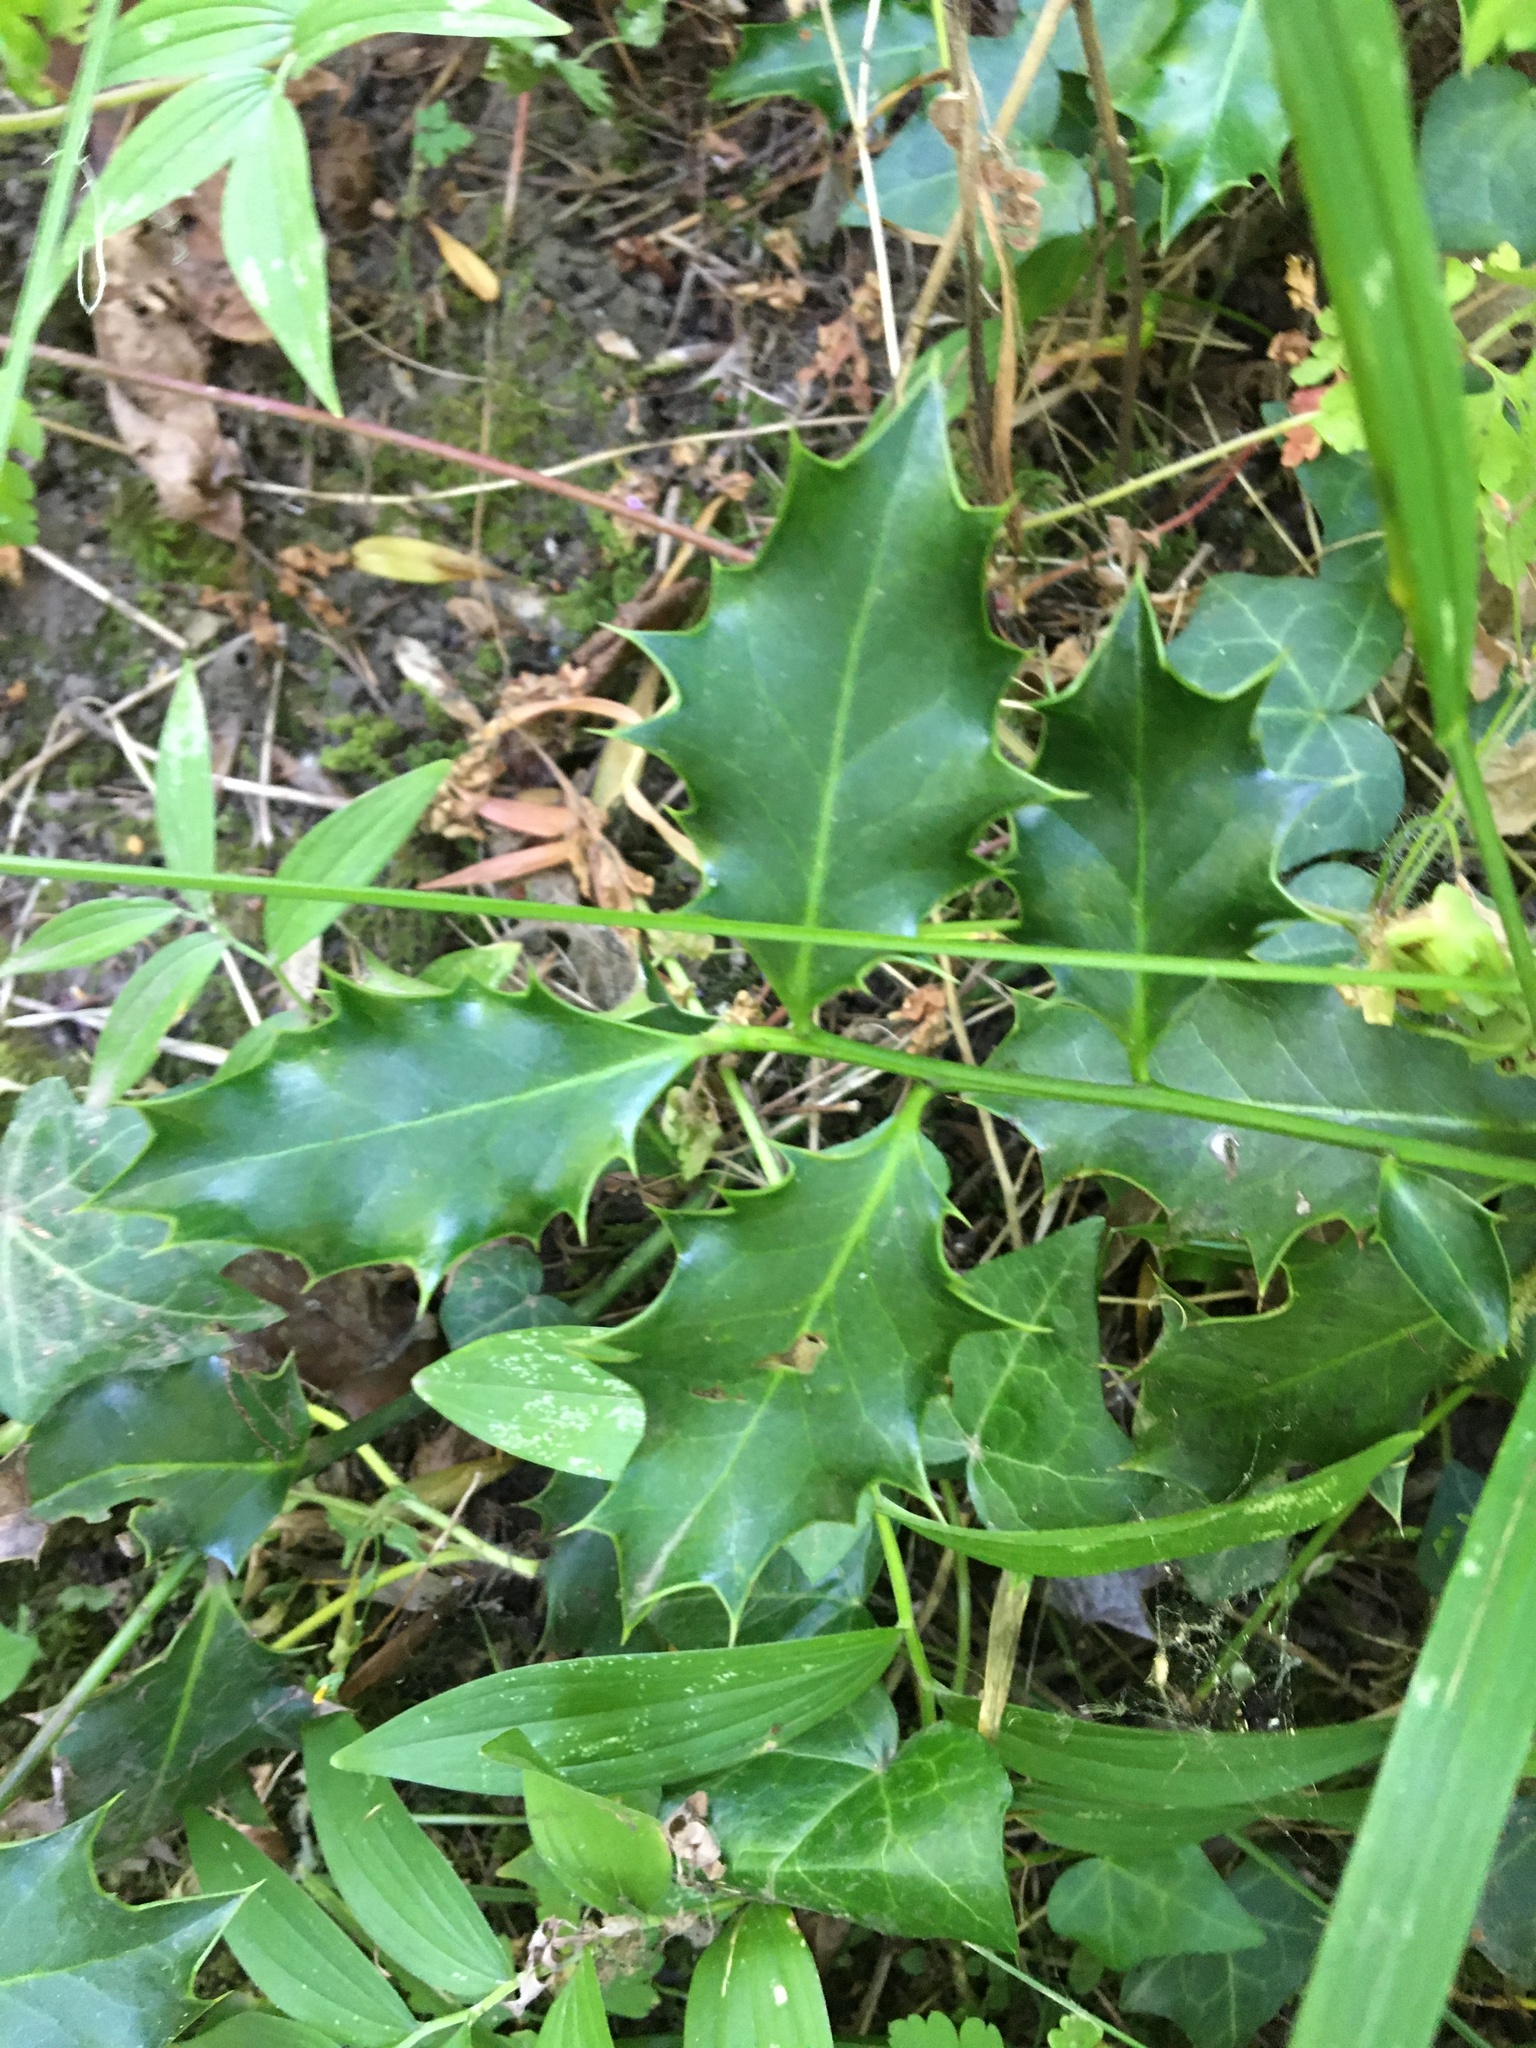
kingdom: Plantae
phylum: Tracheophyta
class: Magnoliopsida
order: Aquifoliales
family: Aquifoliaceae
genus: Ilex
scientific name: Ilex aquifolium
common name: English holly
